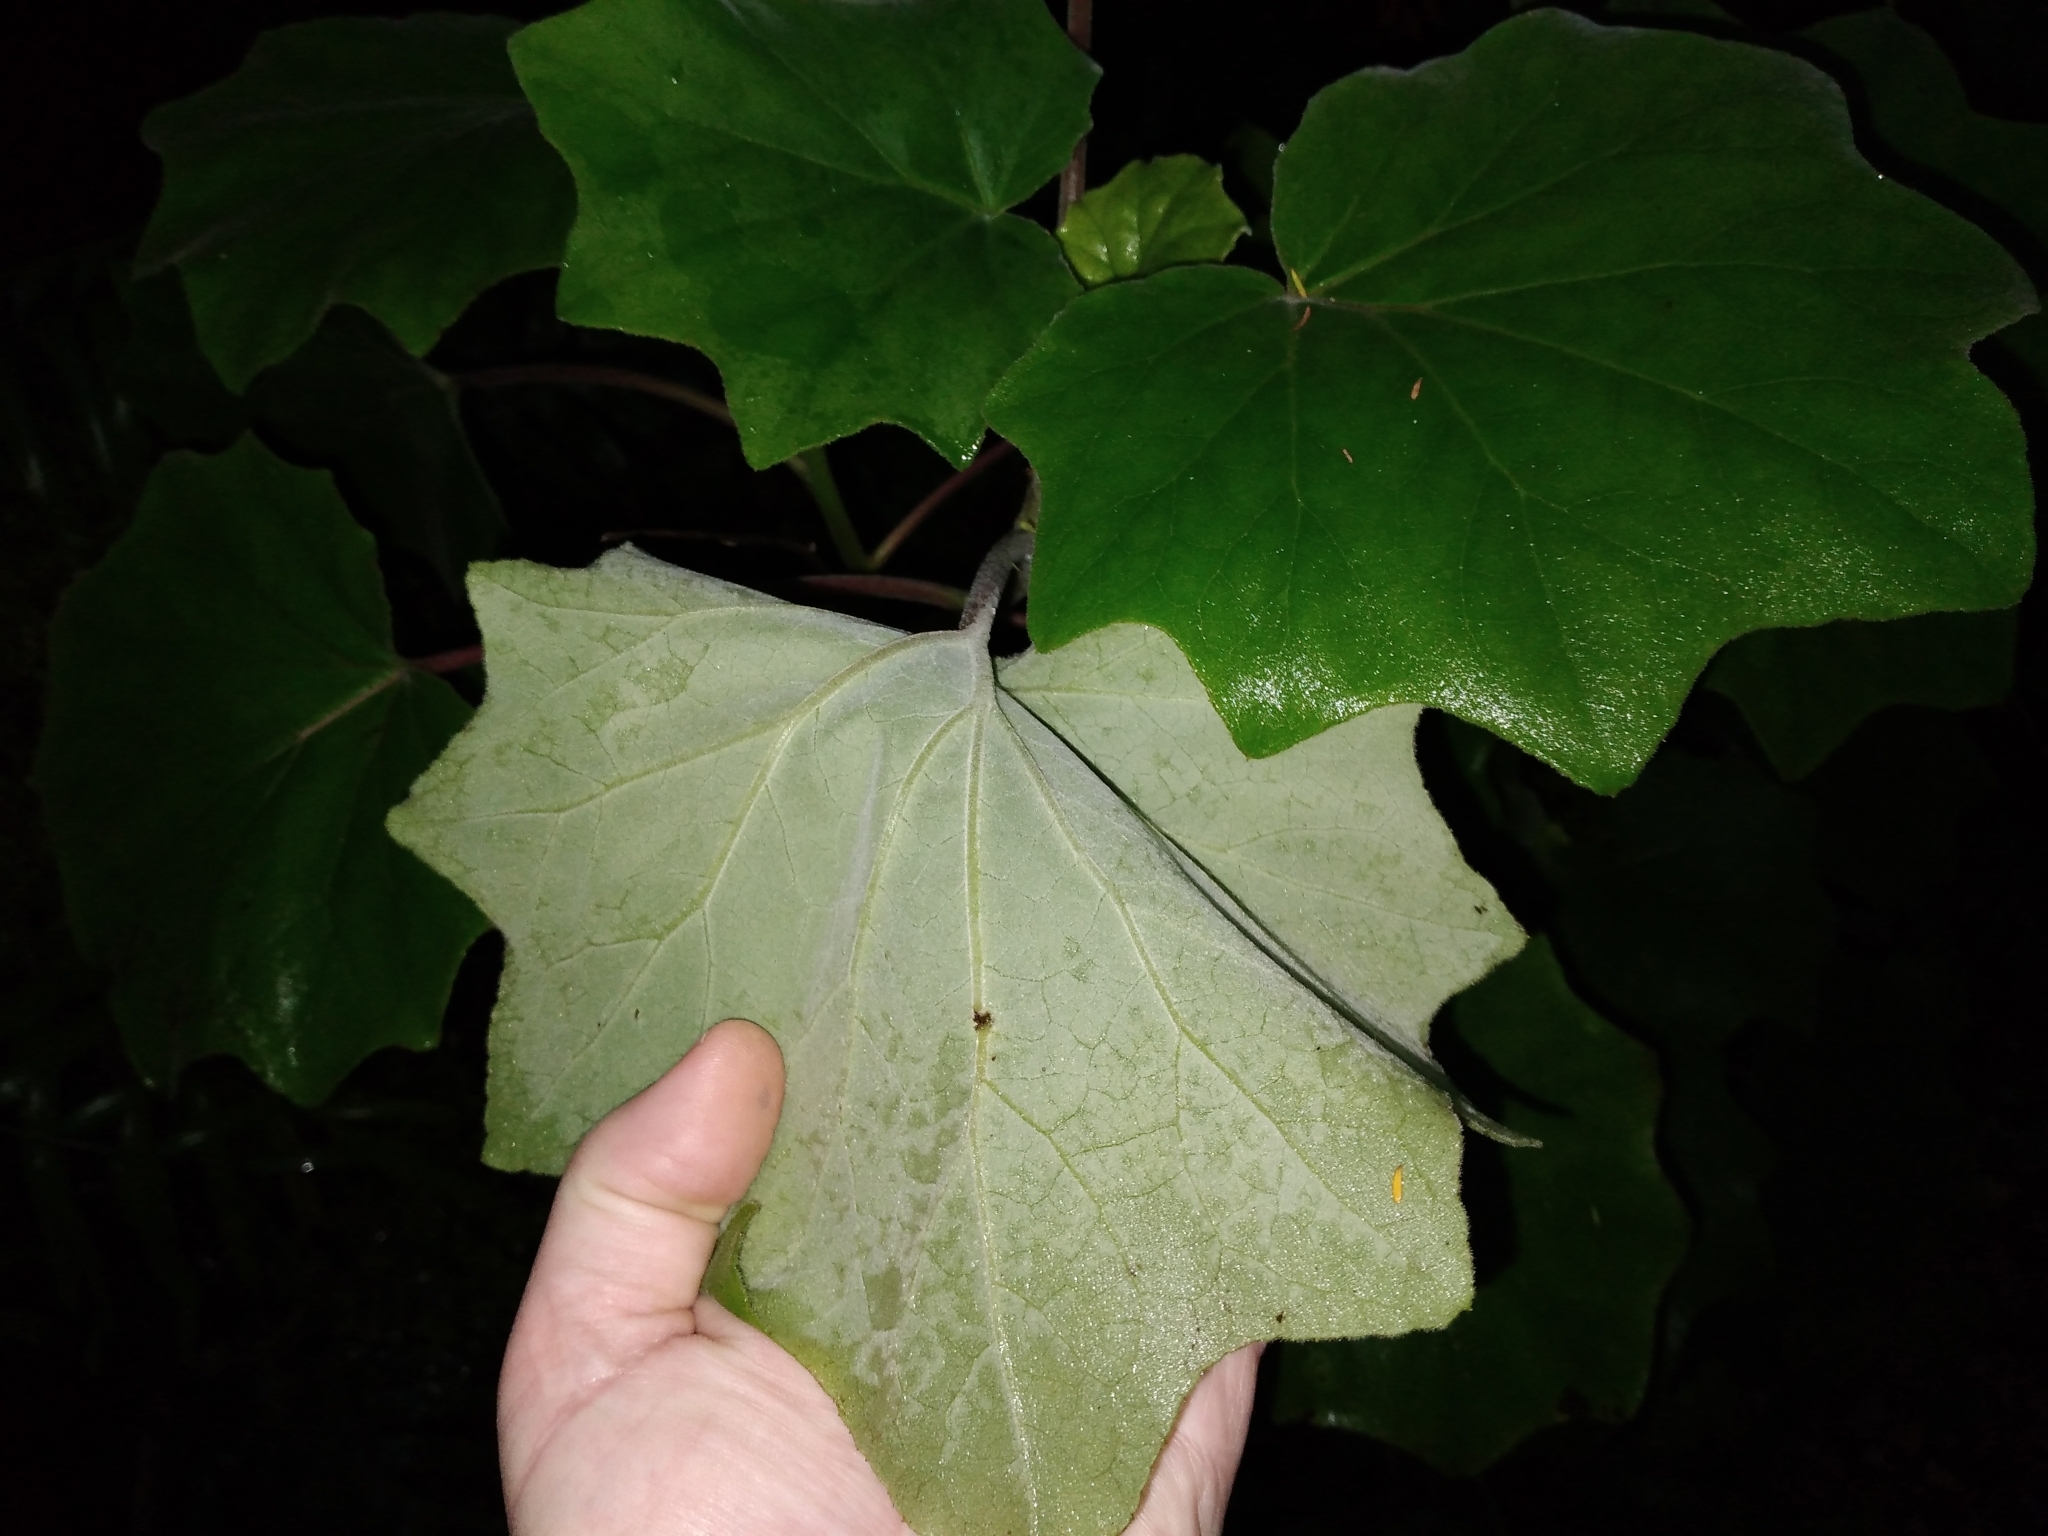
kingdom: Plantae
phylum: Tracheophyta
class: Magnoliopsida
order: Asterales
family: Asteraceae
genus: Roldana
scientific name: Roldana petasitis
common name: California-geranium
